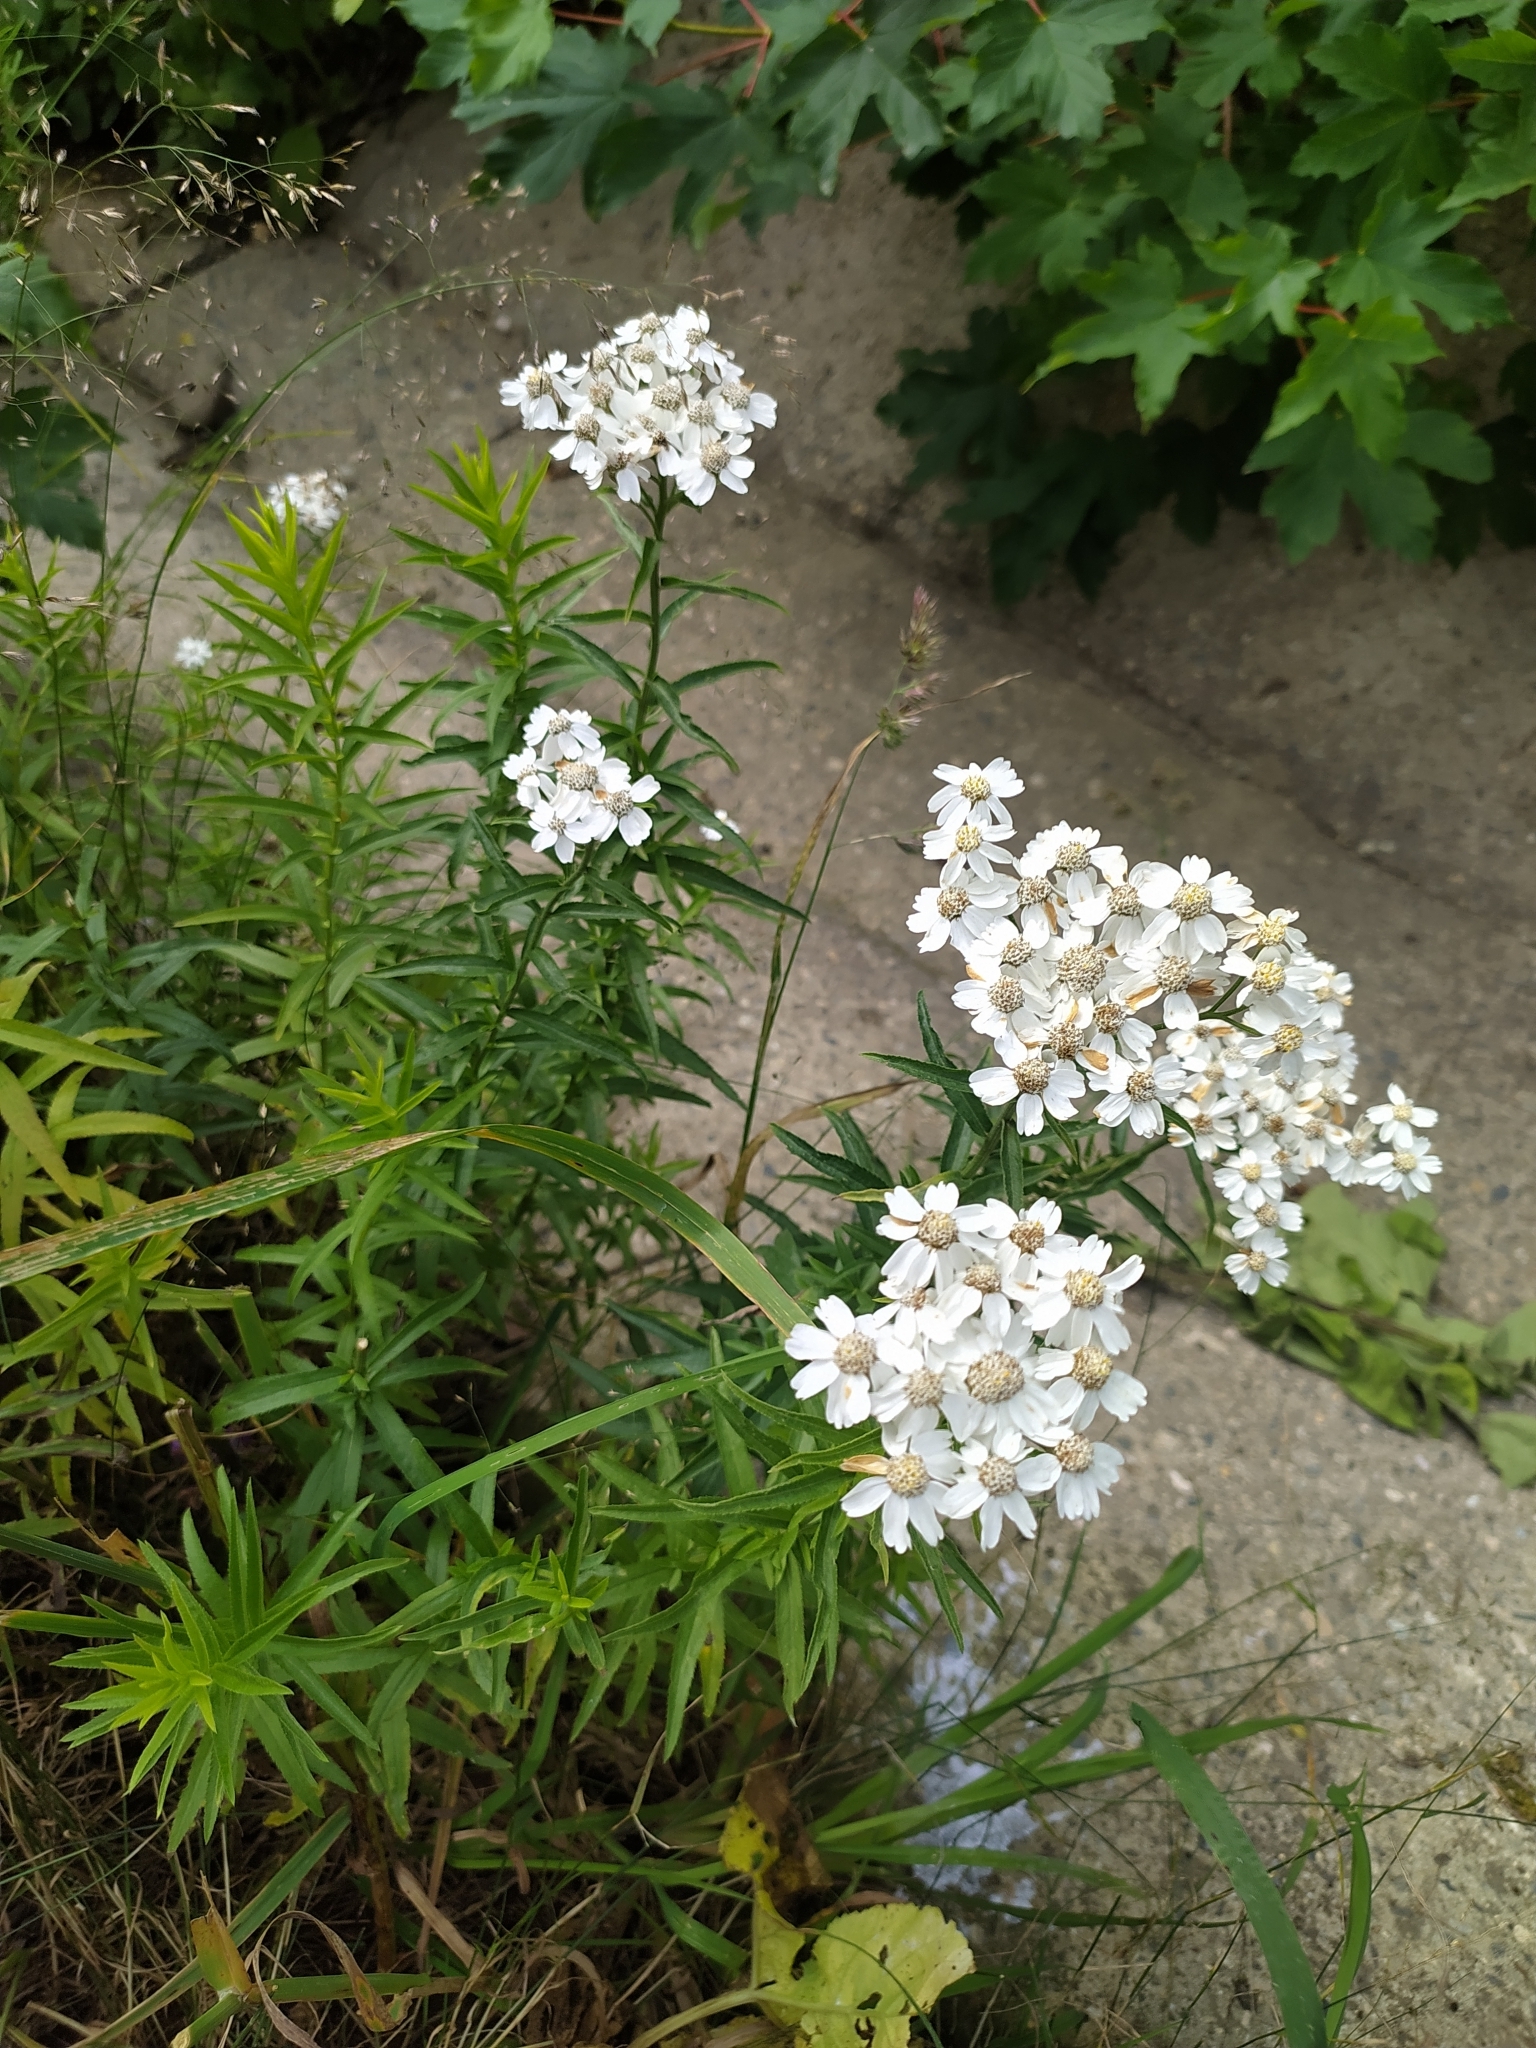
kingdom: Plantae
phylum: Tracheophyta
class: Magnoliopsida
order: Asterales
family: Asteraceae
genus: Achillea
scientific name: Achillea biserrata
